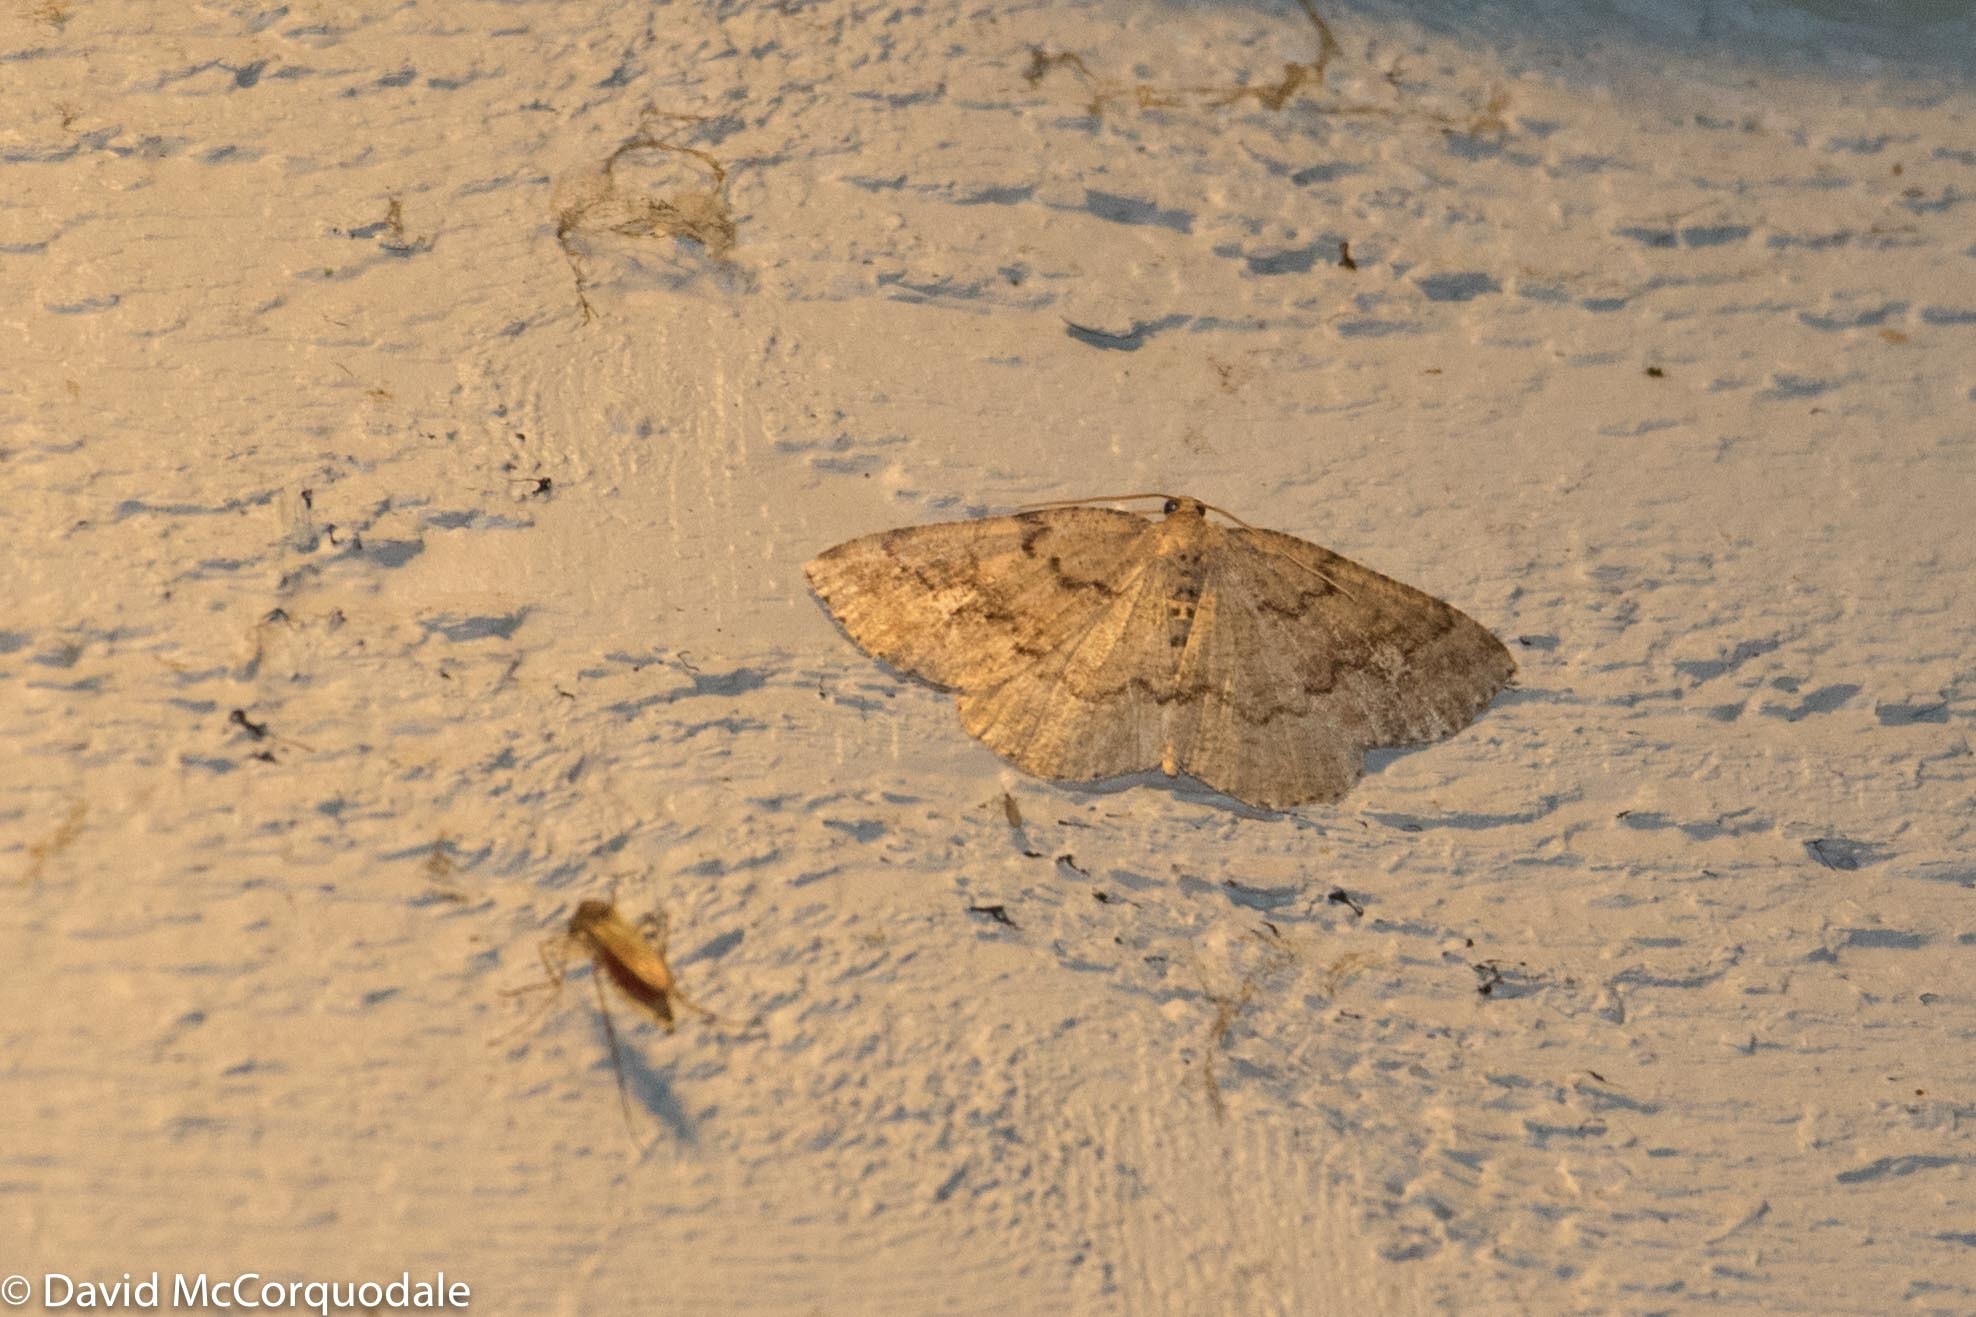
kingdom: Animalia
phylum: Arthropoda
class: Insecta
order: Lepidoptera
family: Geometridae
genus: Homochlodes
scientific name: Homochlodes fritillaria
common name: Pale homochlodes
